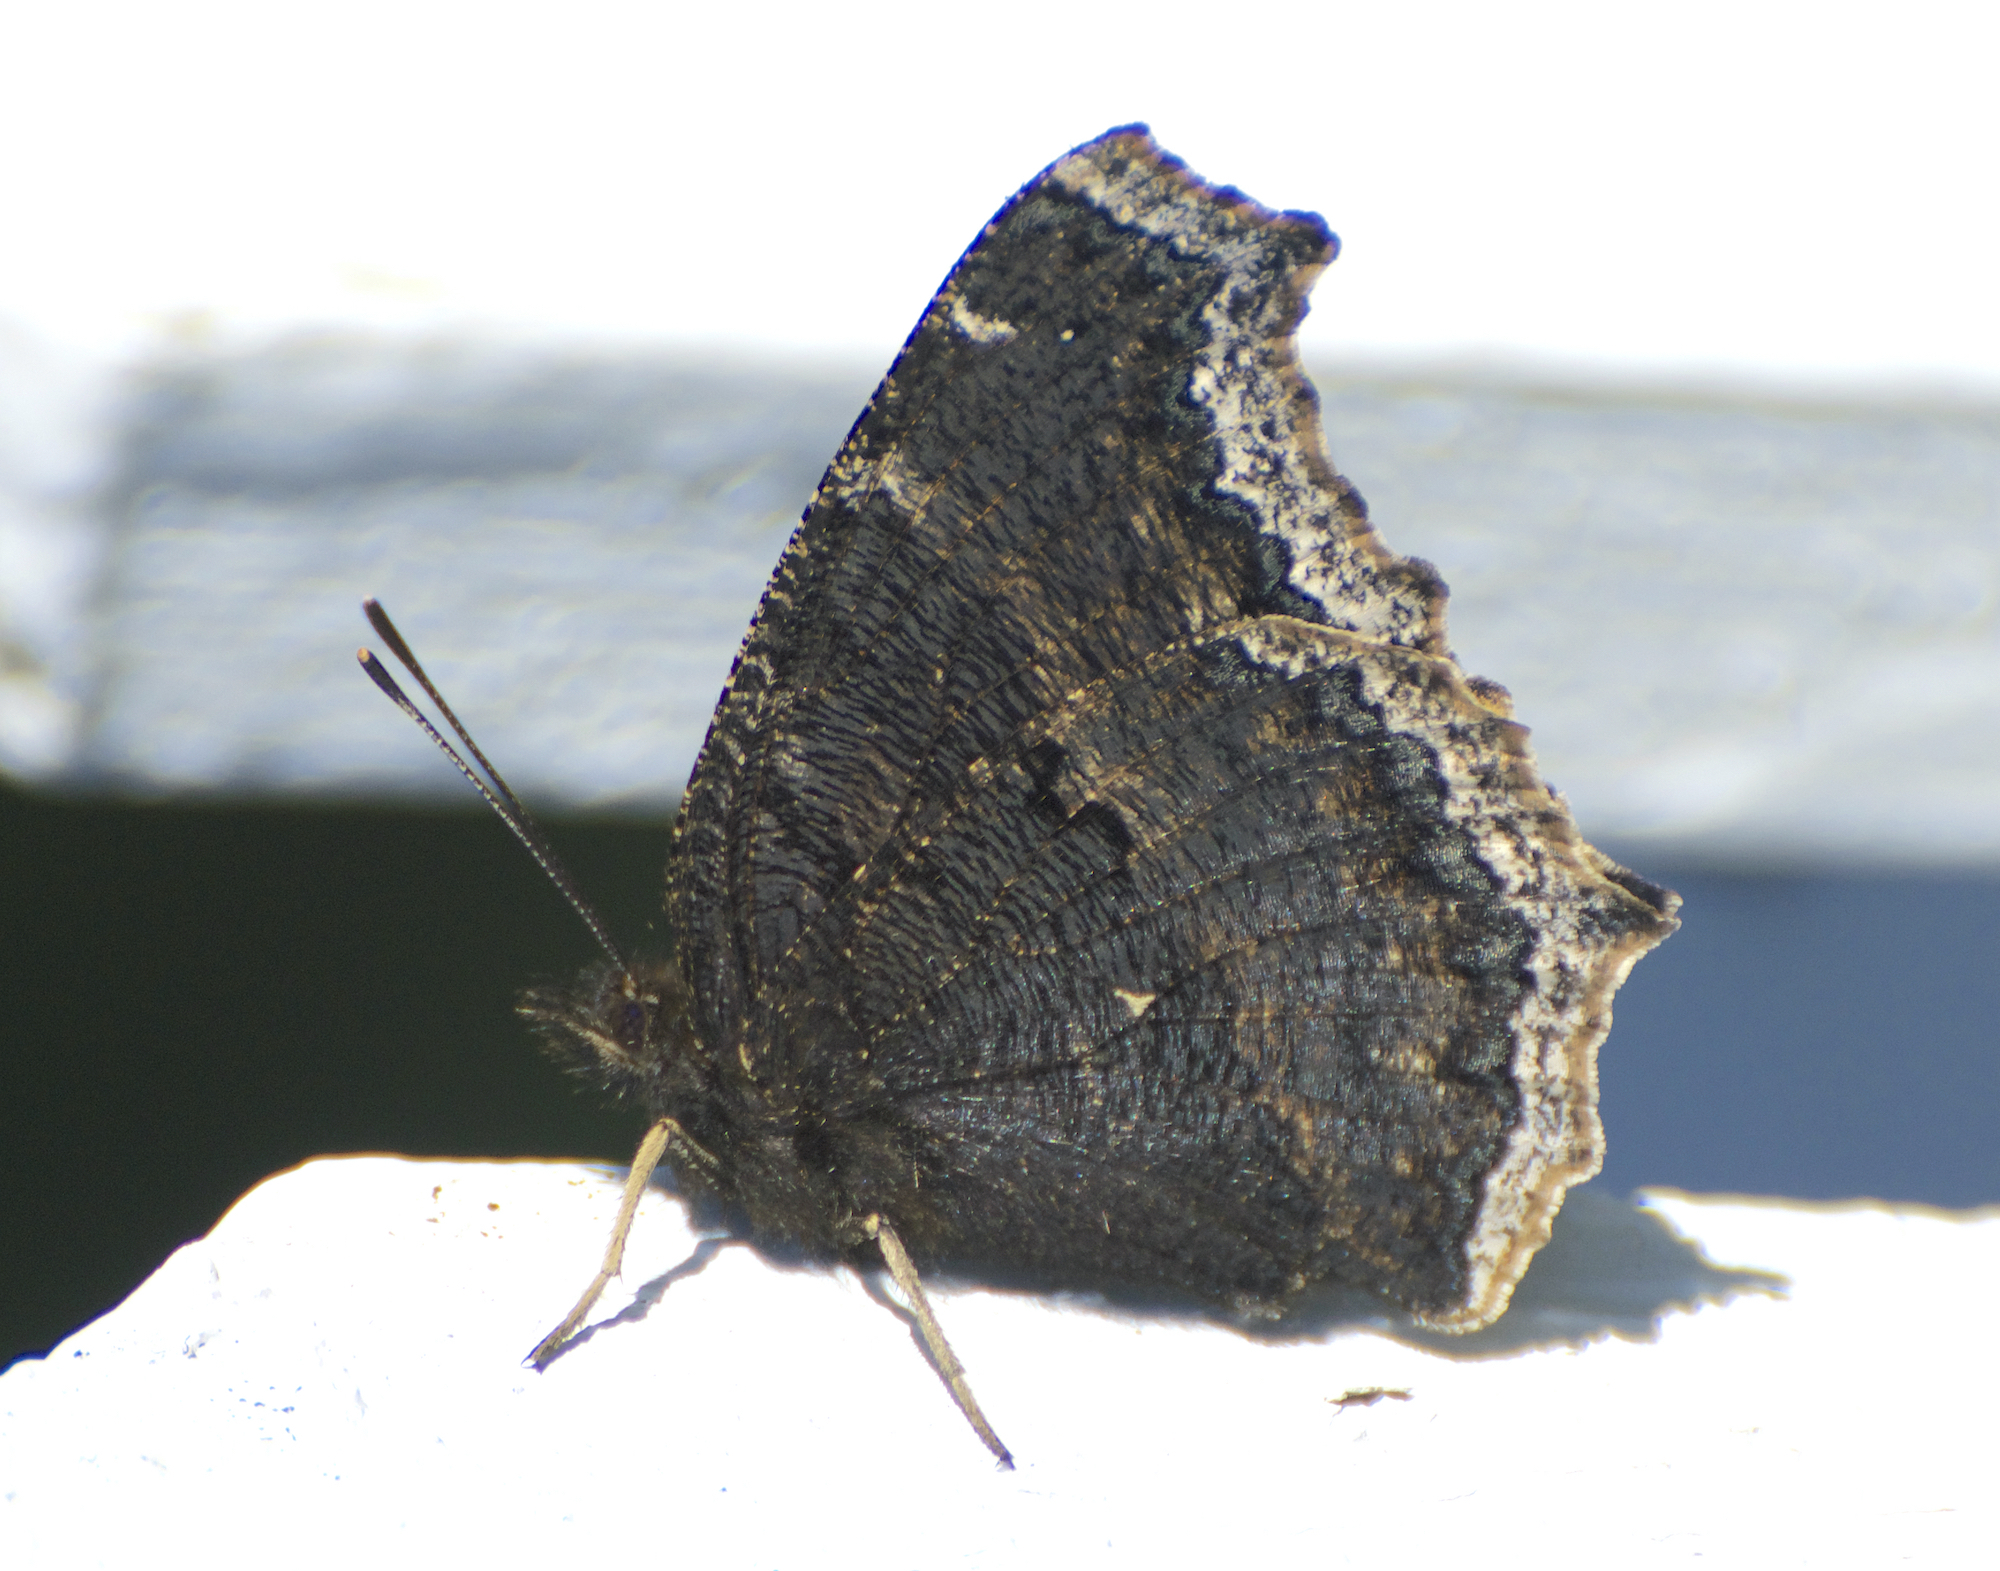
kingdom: Animalia
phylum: Arthropoda
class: Insecta
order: Lepidoptera
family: Nymphalidae
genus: Nymphalis
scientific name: Nymphalis antiopa
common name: Camberwell beauty
